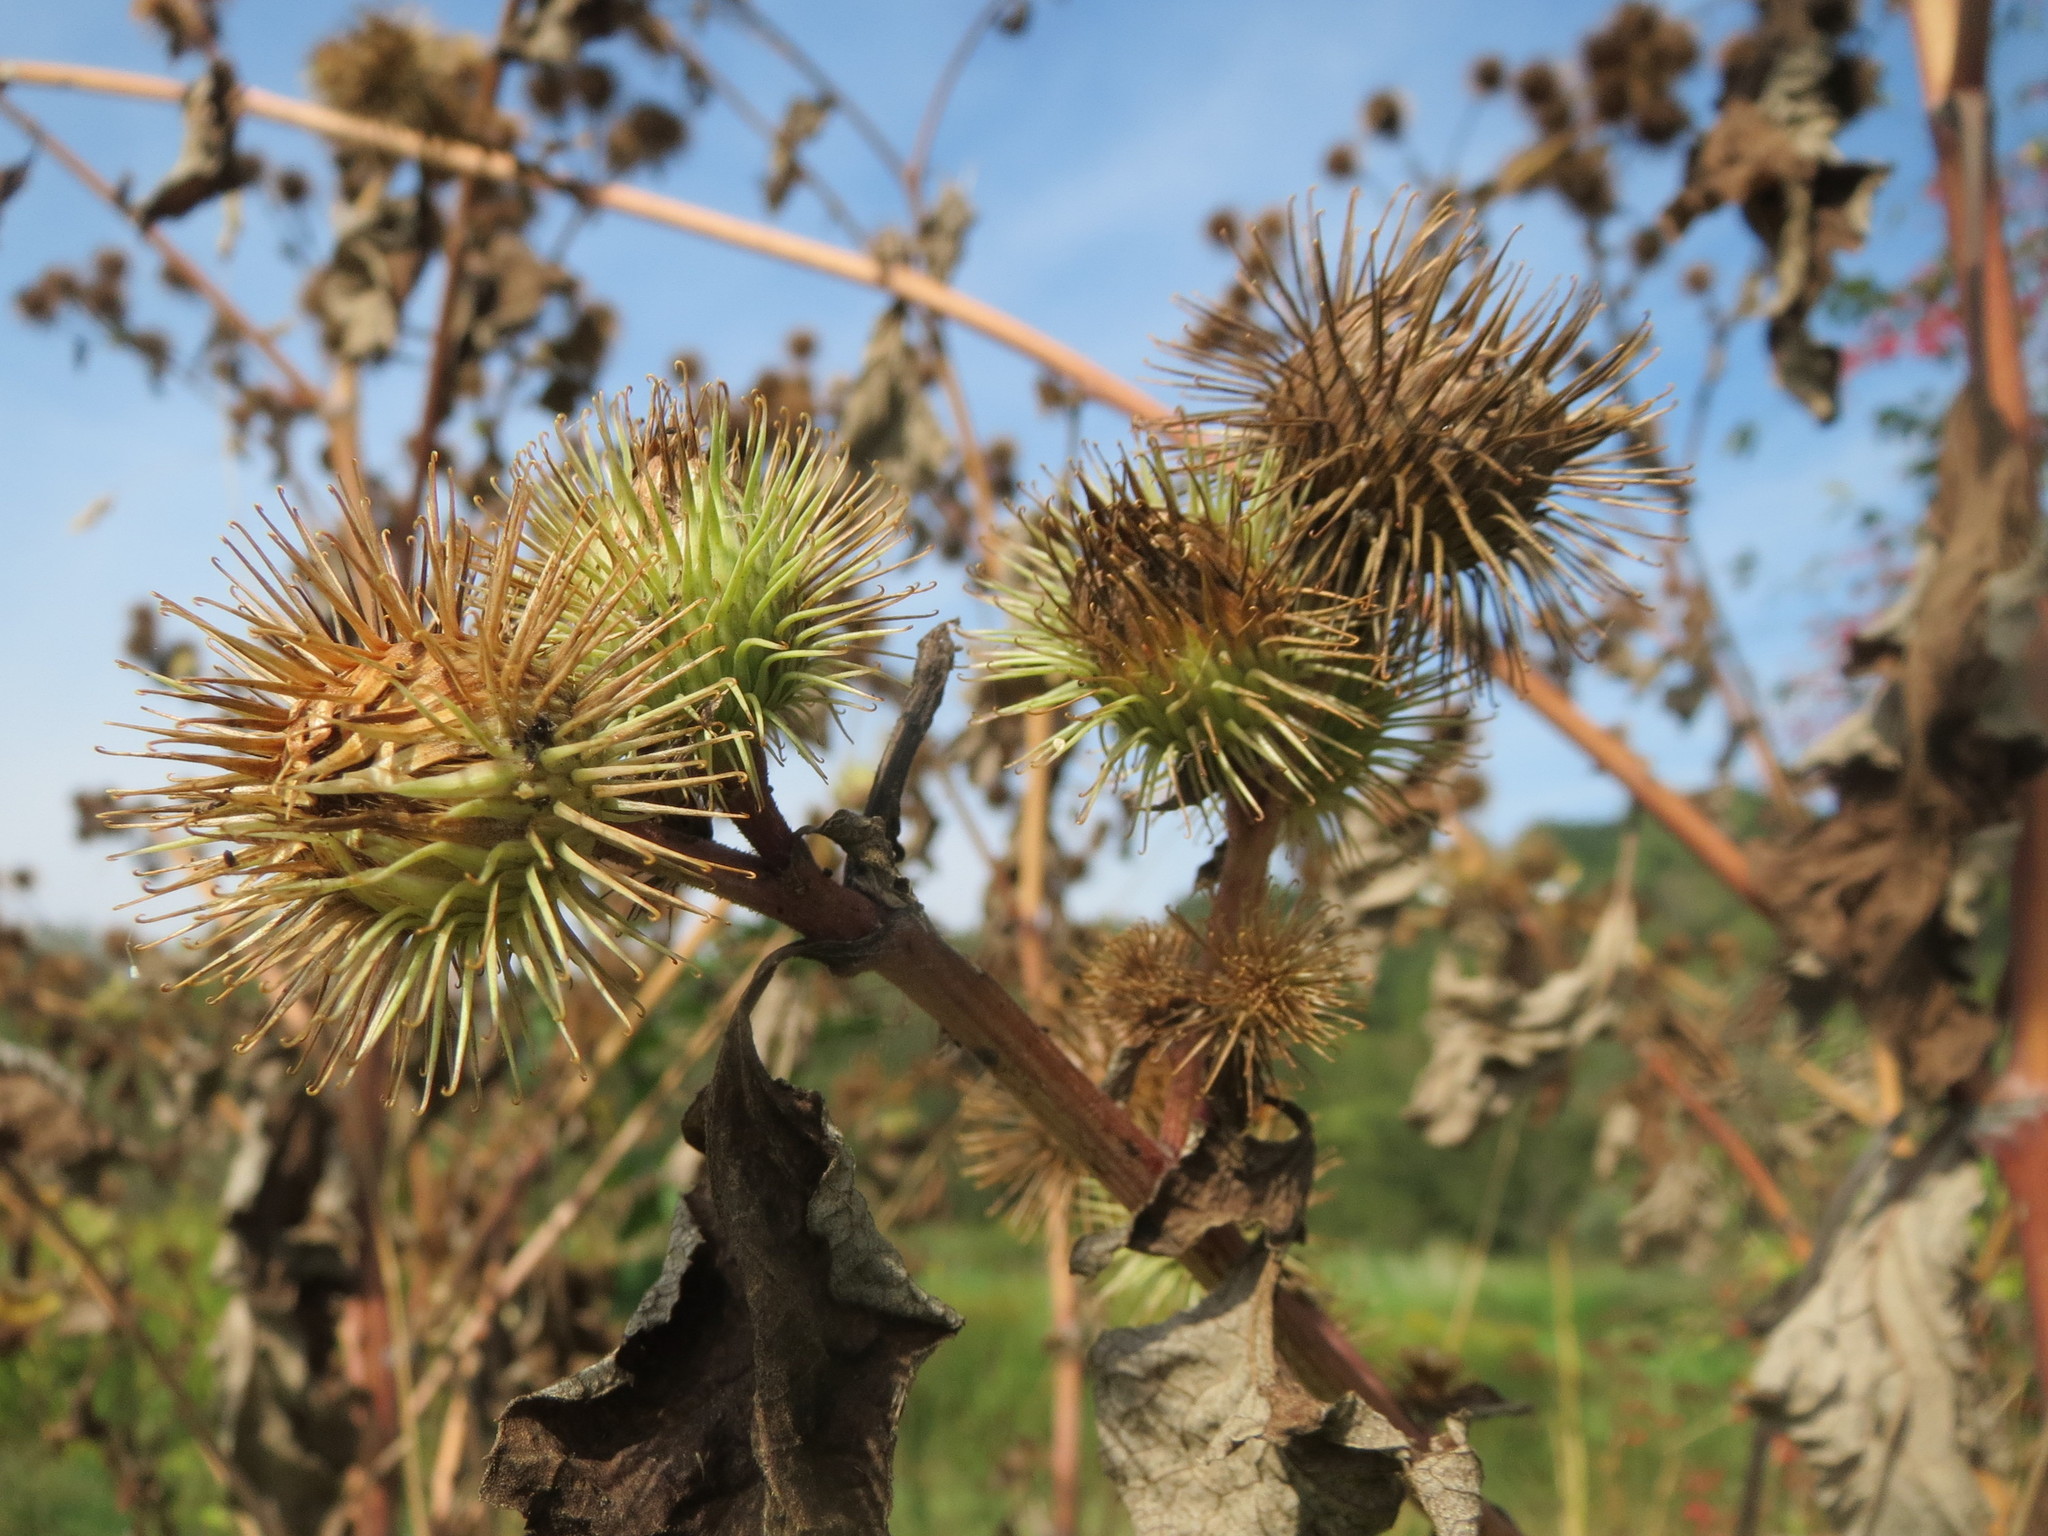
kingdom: Plantae
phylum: Tracheophyta
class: Magnoliopsida
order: Asterales
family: Asteraceae
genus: Arctium
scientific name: Arctium lappa
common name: Greater burdock
